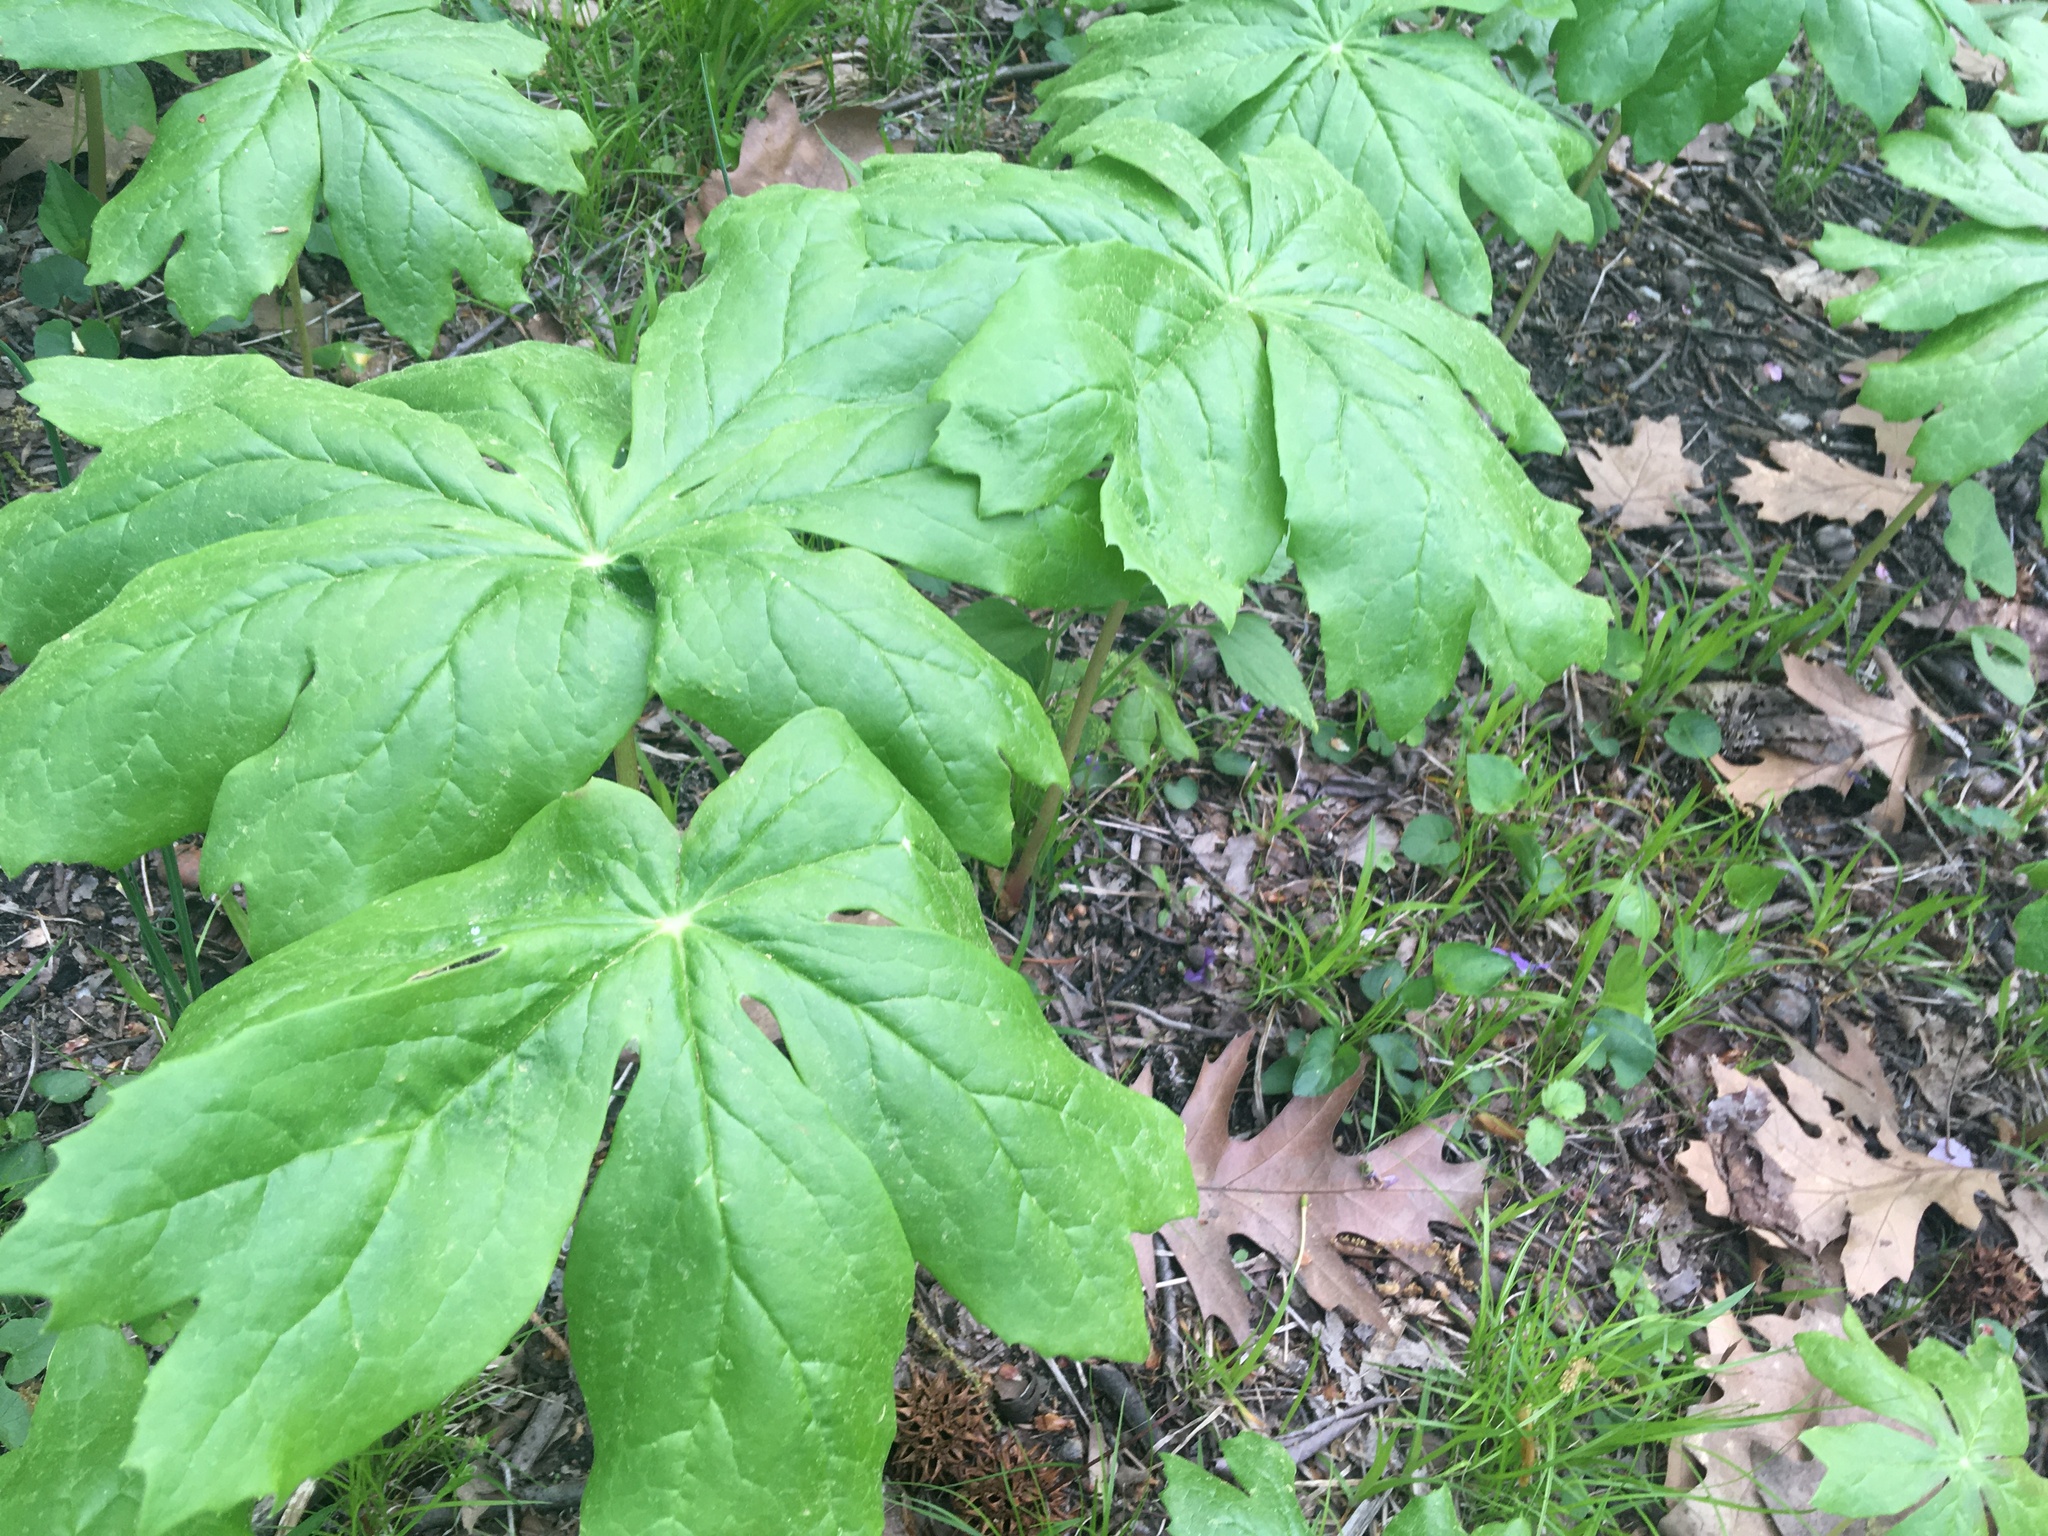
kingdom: Plantae
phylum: Tracheophyta
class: Magnoliopsida
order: Ranunculales
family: Berberidaceae
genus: Podophyllum
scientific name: Podophyllum peltatum
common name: Wild mandrake
